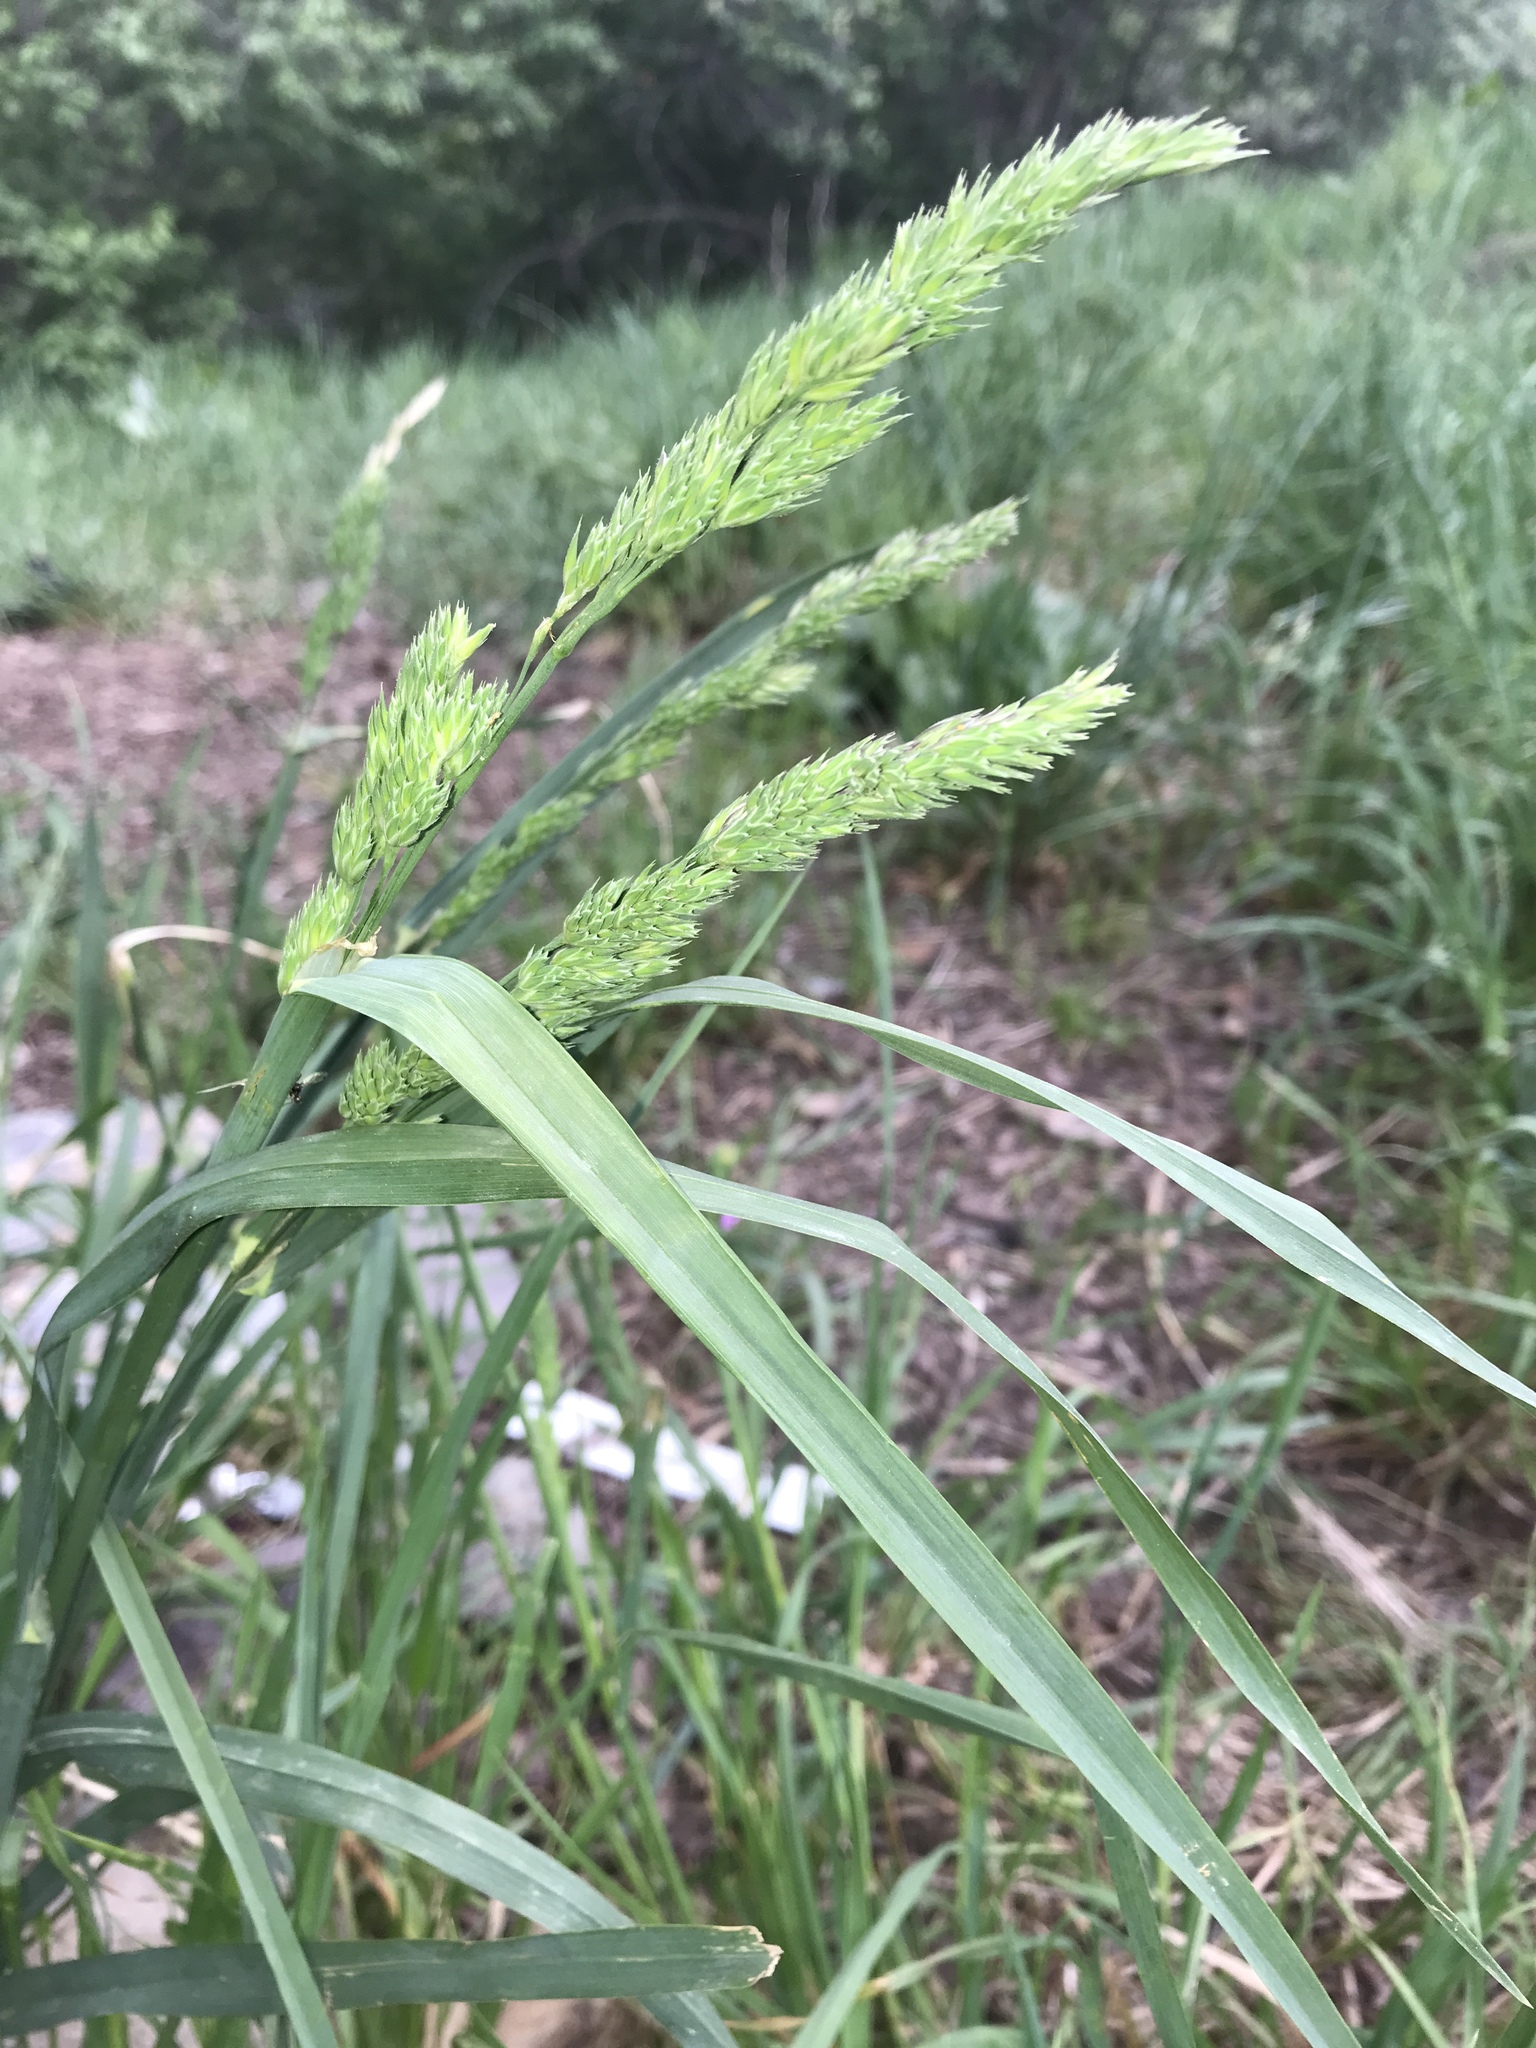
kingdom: Plantae
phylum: Tracheophyta
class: Liliopsida
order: Poales
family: Poaceae
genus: Dactylis
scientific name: Dactylis glomerata
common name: Orchardgrass
